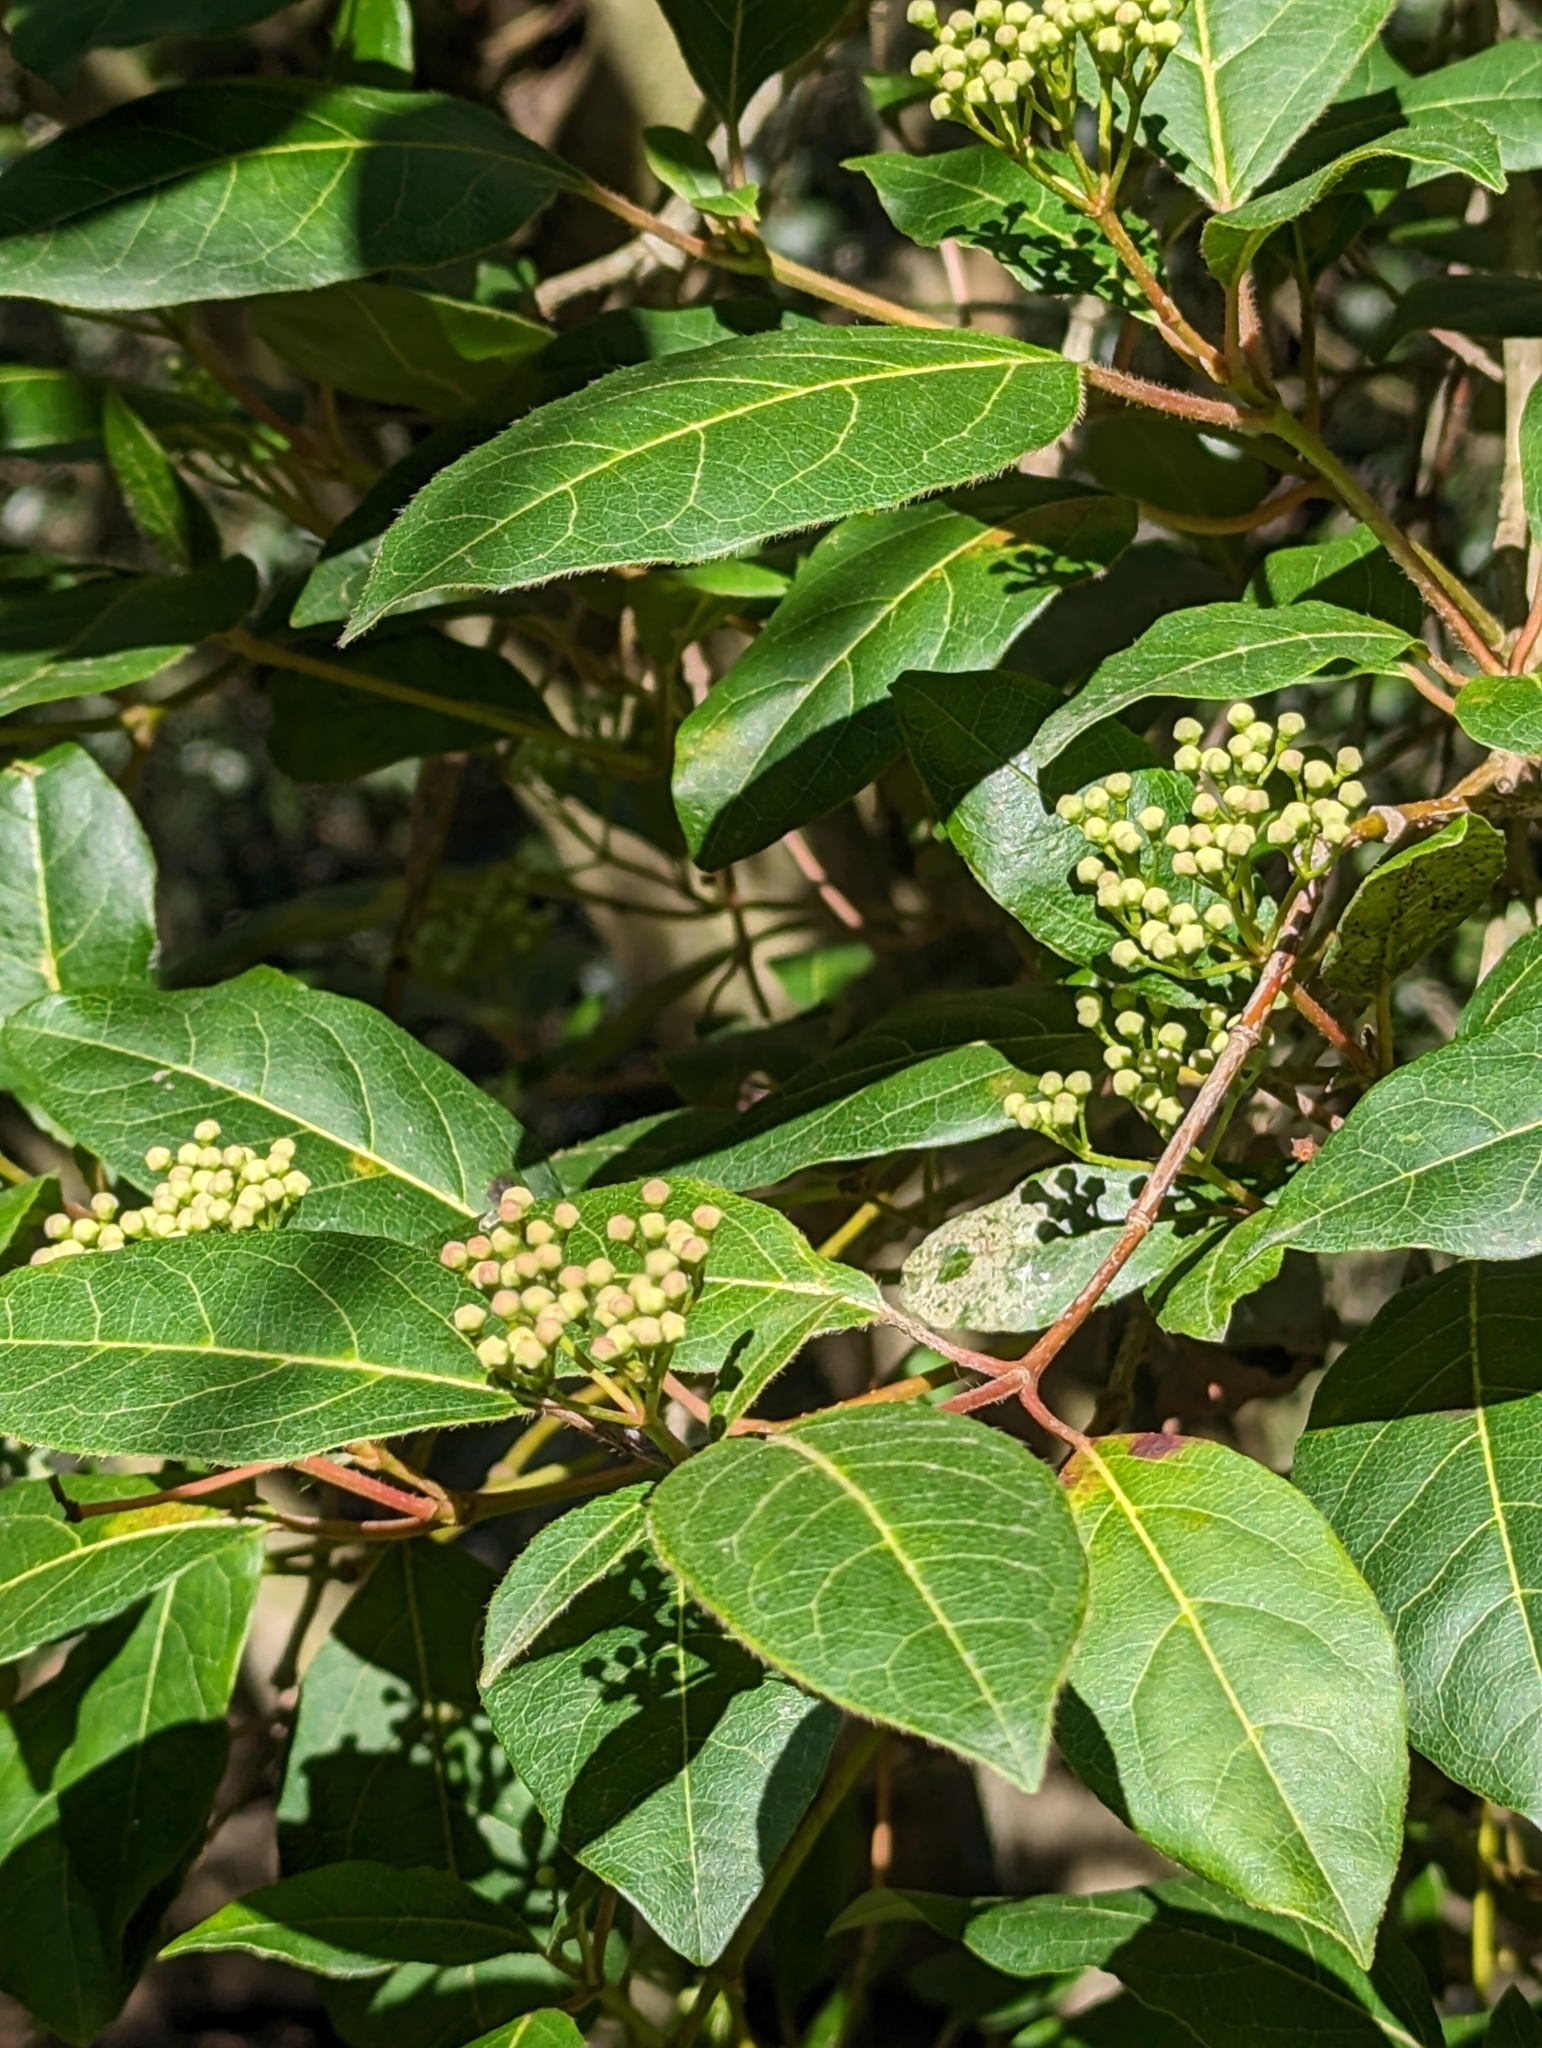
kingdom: Plantae
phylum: Tracheophyta
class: Magnoliopsida
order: Dipsacales
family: Viburnaceae
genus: Viburnum
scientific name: Viburnum tinus
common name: Laurustinus
